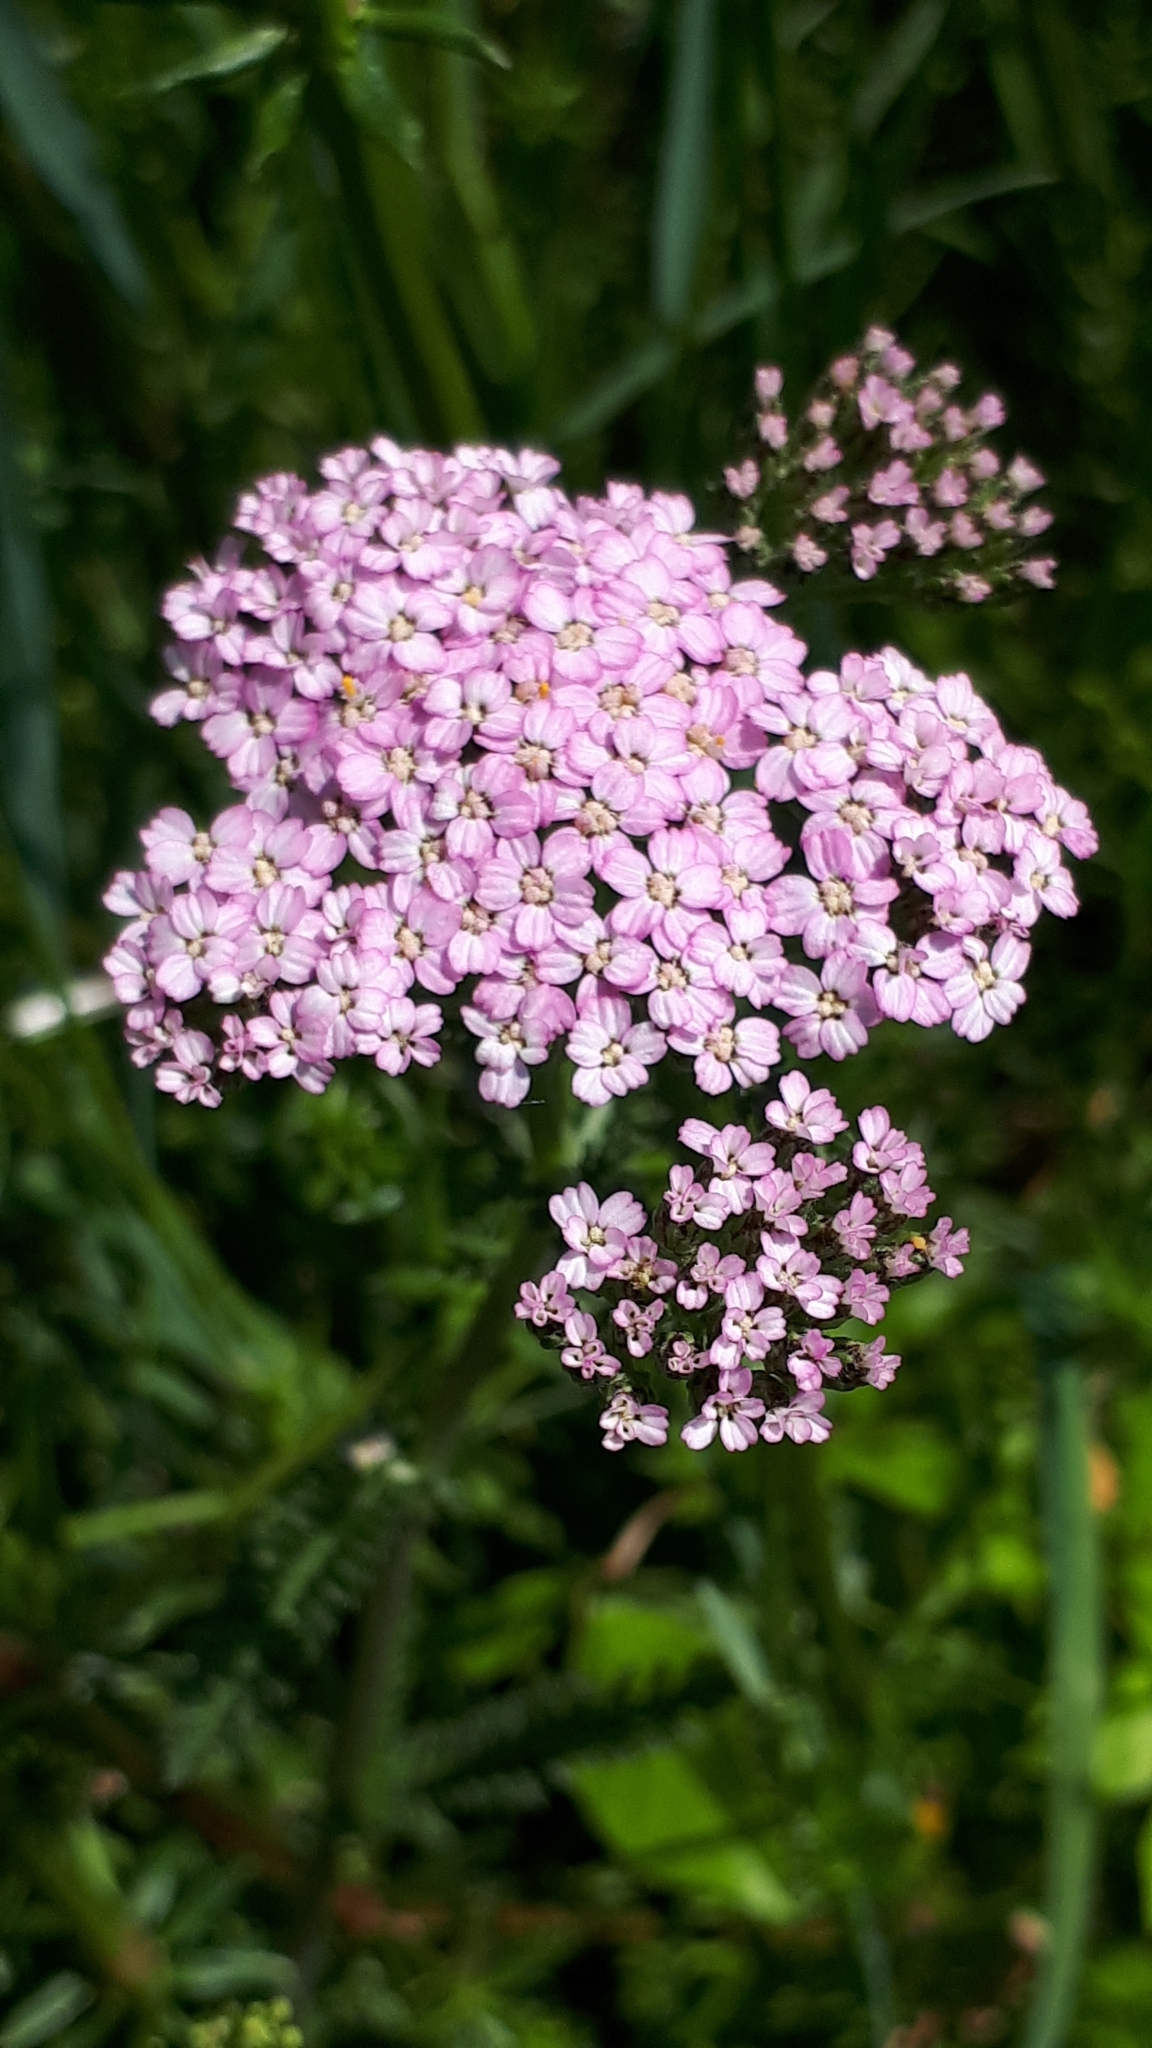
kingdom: Plantae
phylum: Tracheophyta
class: Magnoliopsida
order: Asterales
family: Asteraceae
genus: Achillea
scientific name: Achillea millefolium
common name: Yarrow
